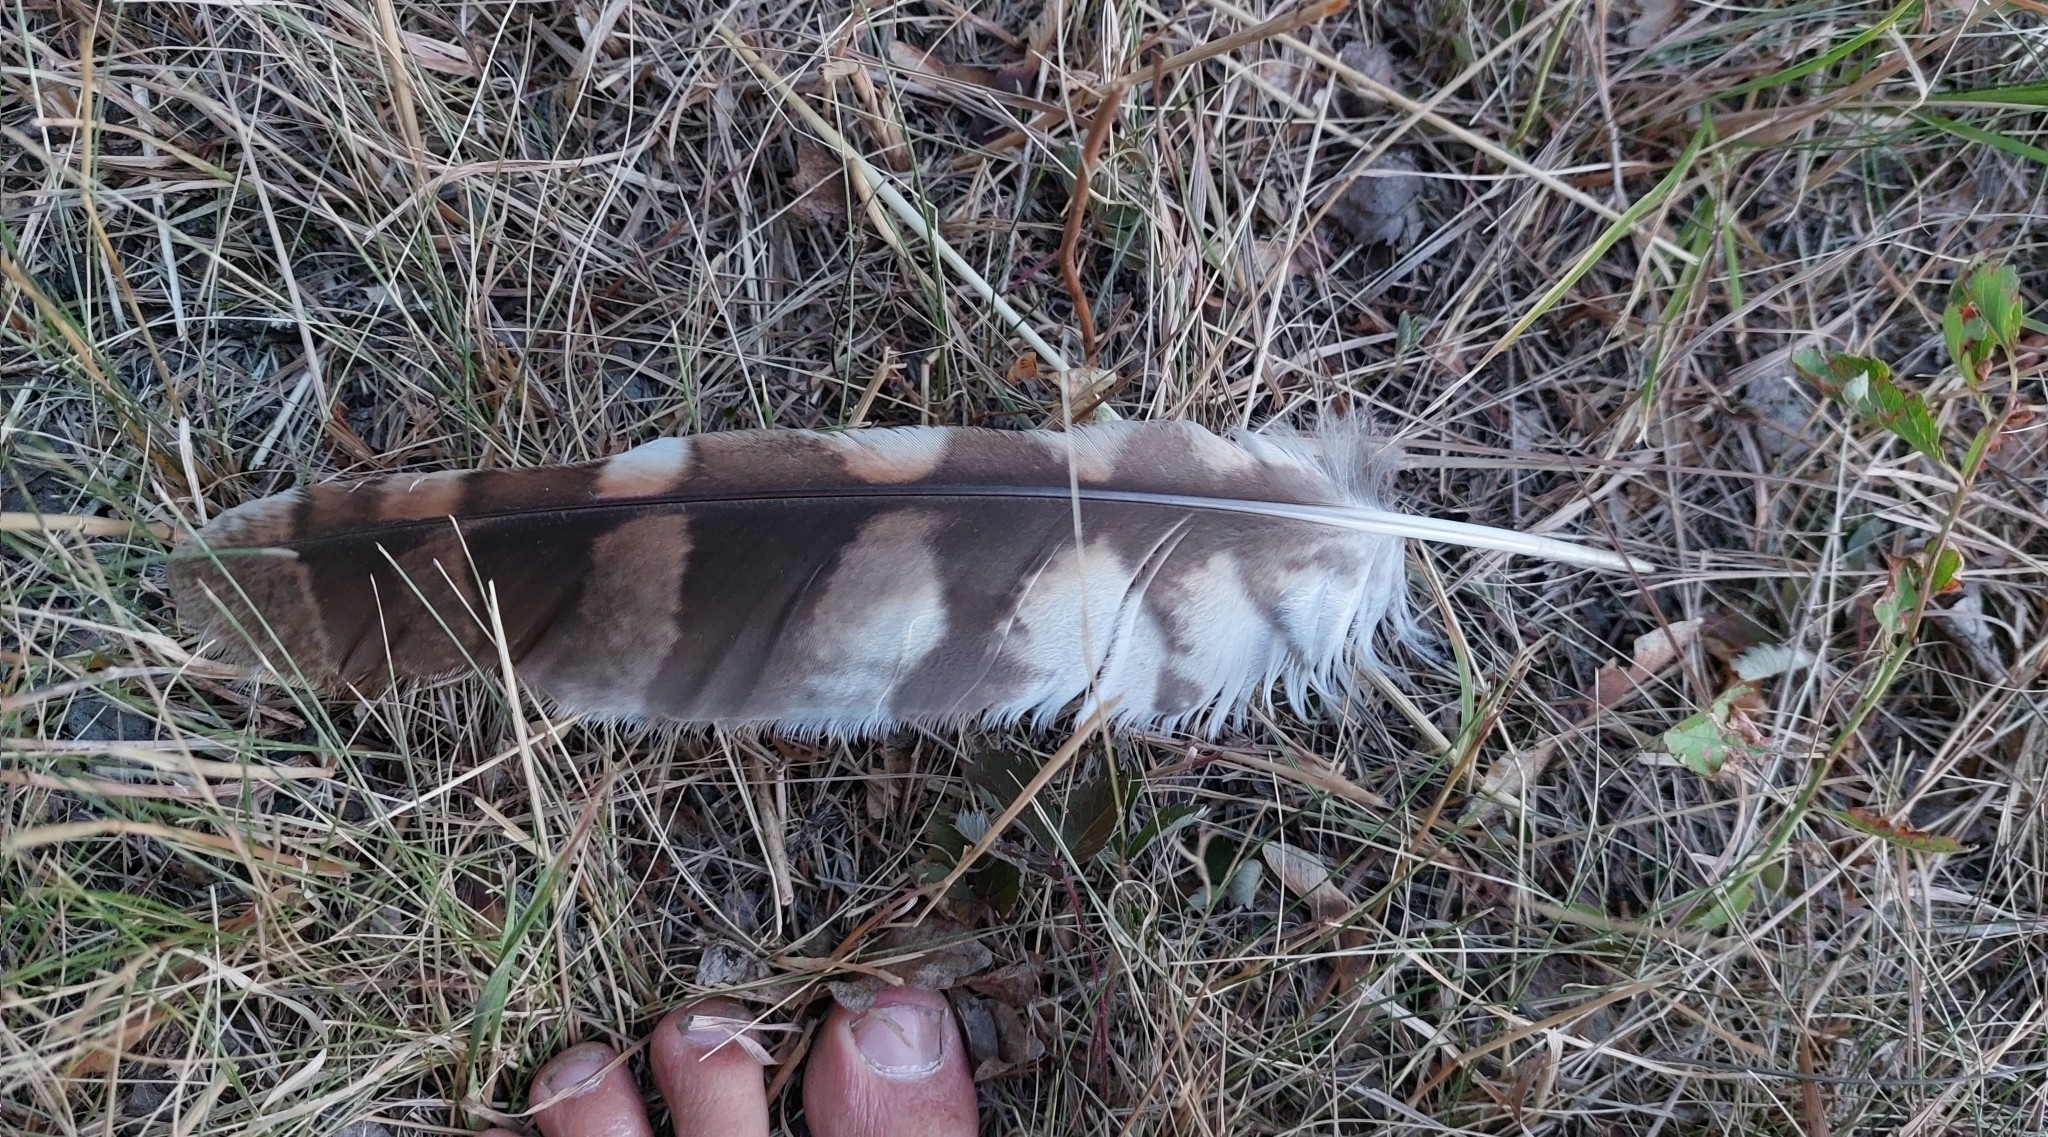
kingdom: Animalia
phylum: Chordata
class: Aves
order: Strigiformes
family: Strigidae
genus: Strix
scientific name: Strix aluco
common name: Tawny owl
